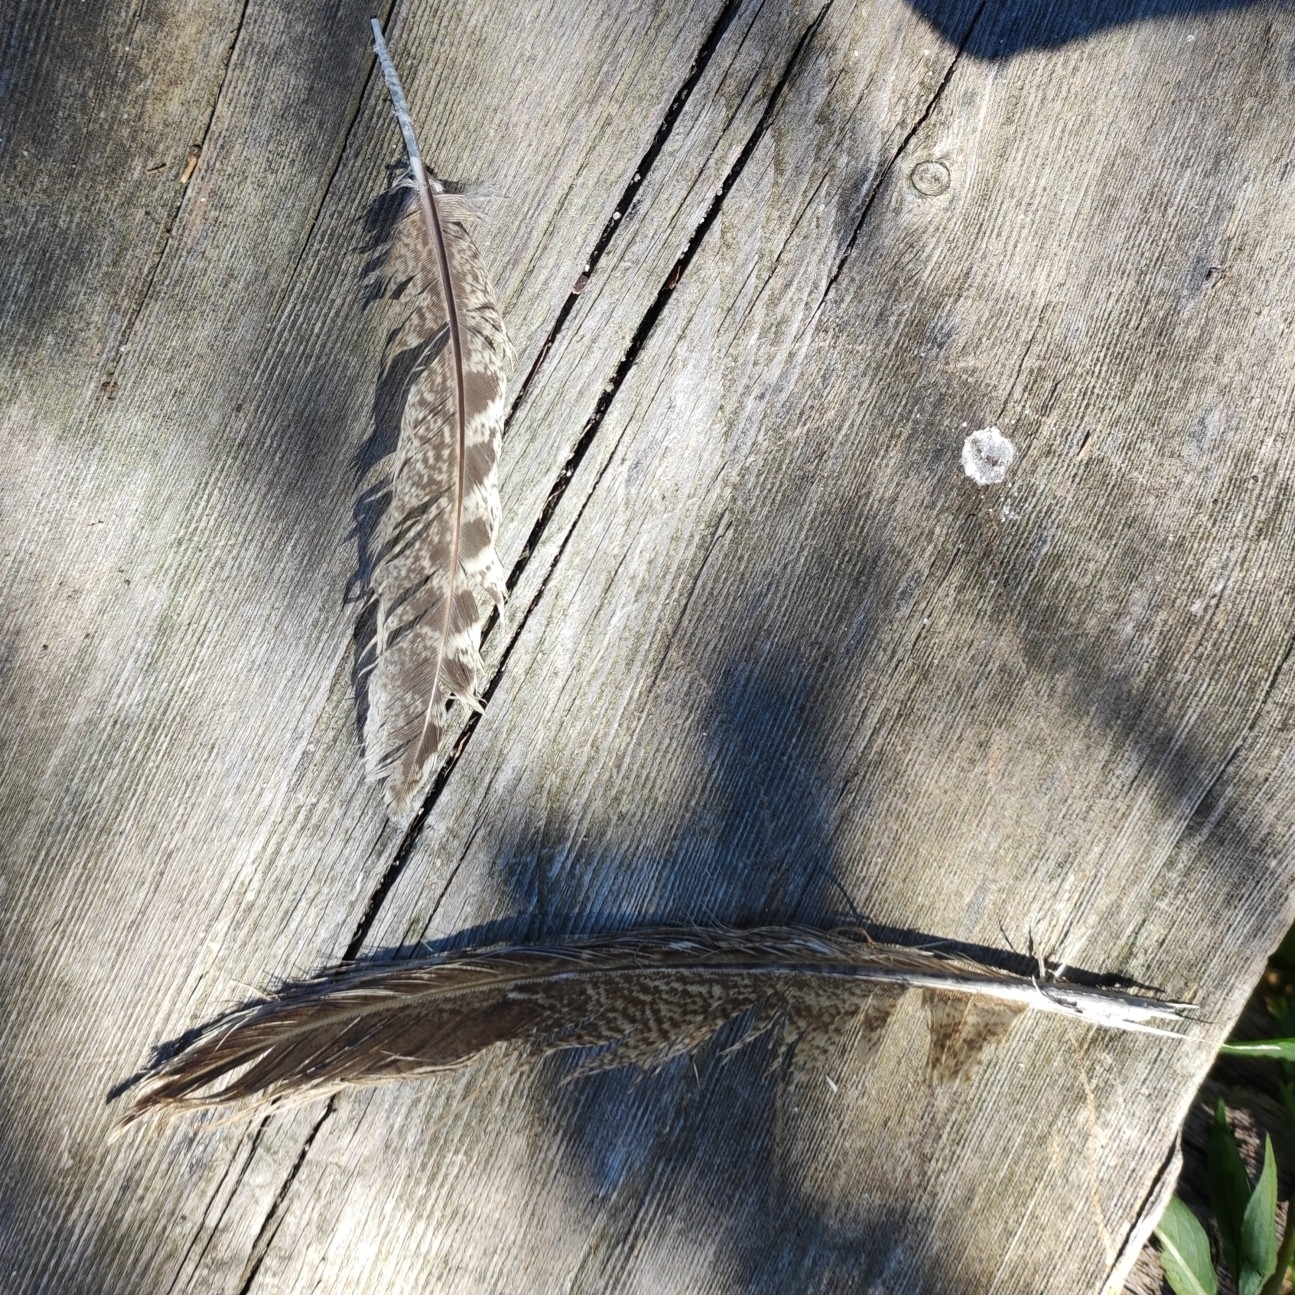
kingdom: Animalia
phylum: Chordata
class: Aves
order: Galliformes
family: Phasianidae
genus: Phasianus
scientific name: Phasianus colchicus
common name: Common pheasant
